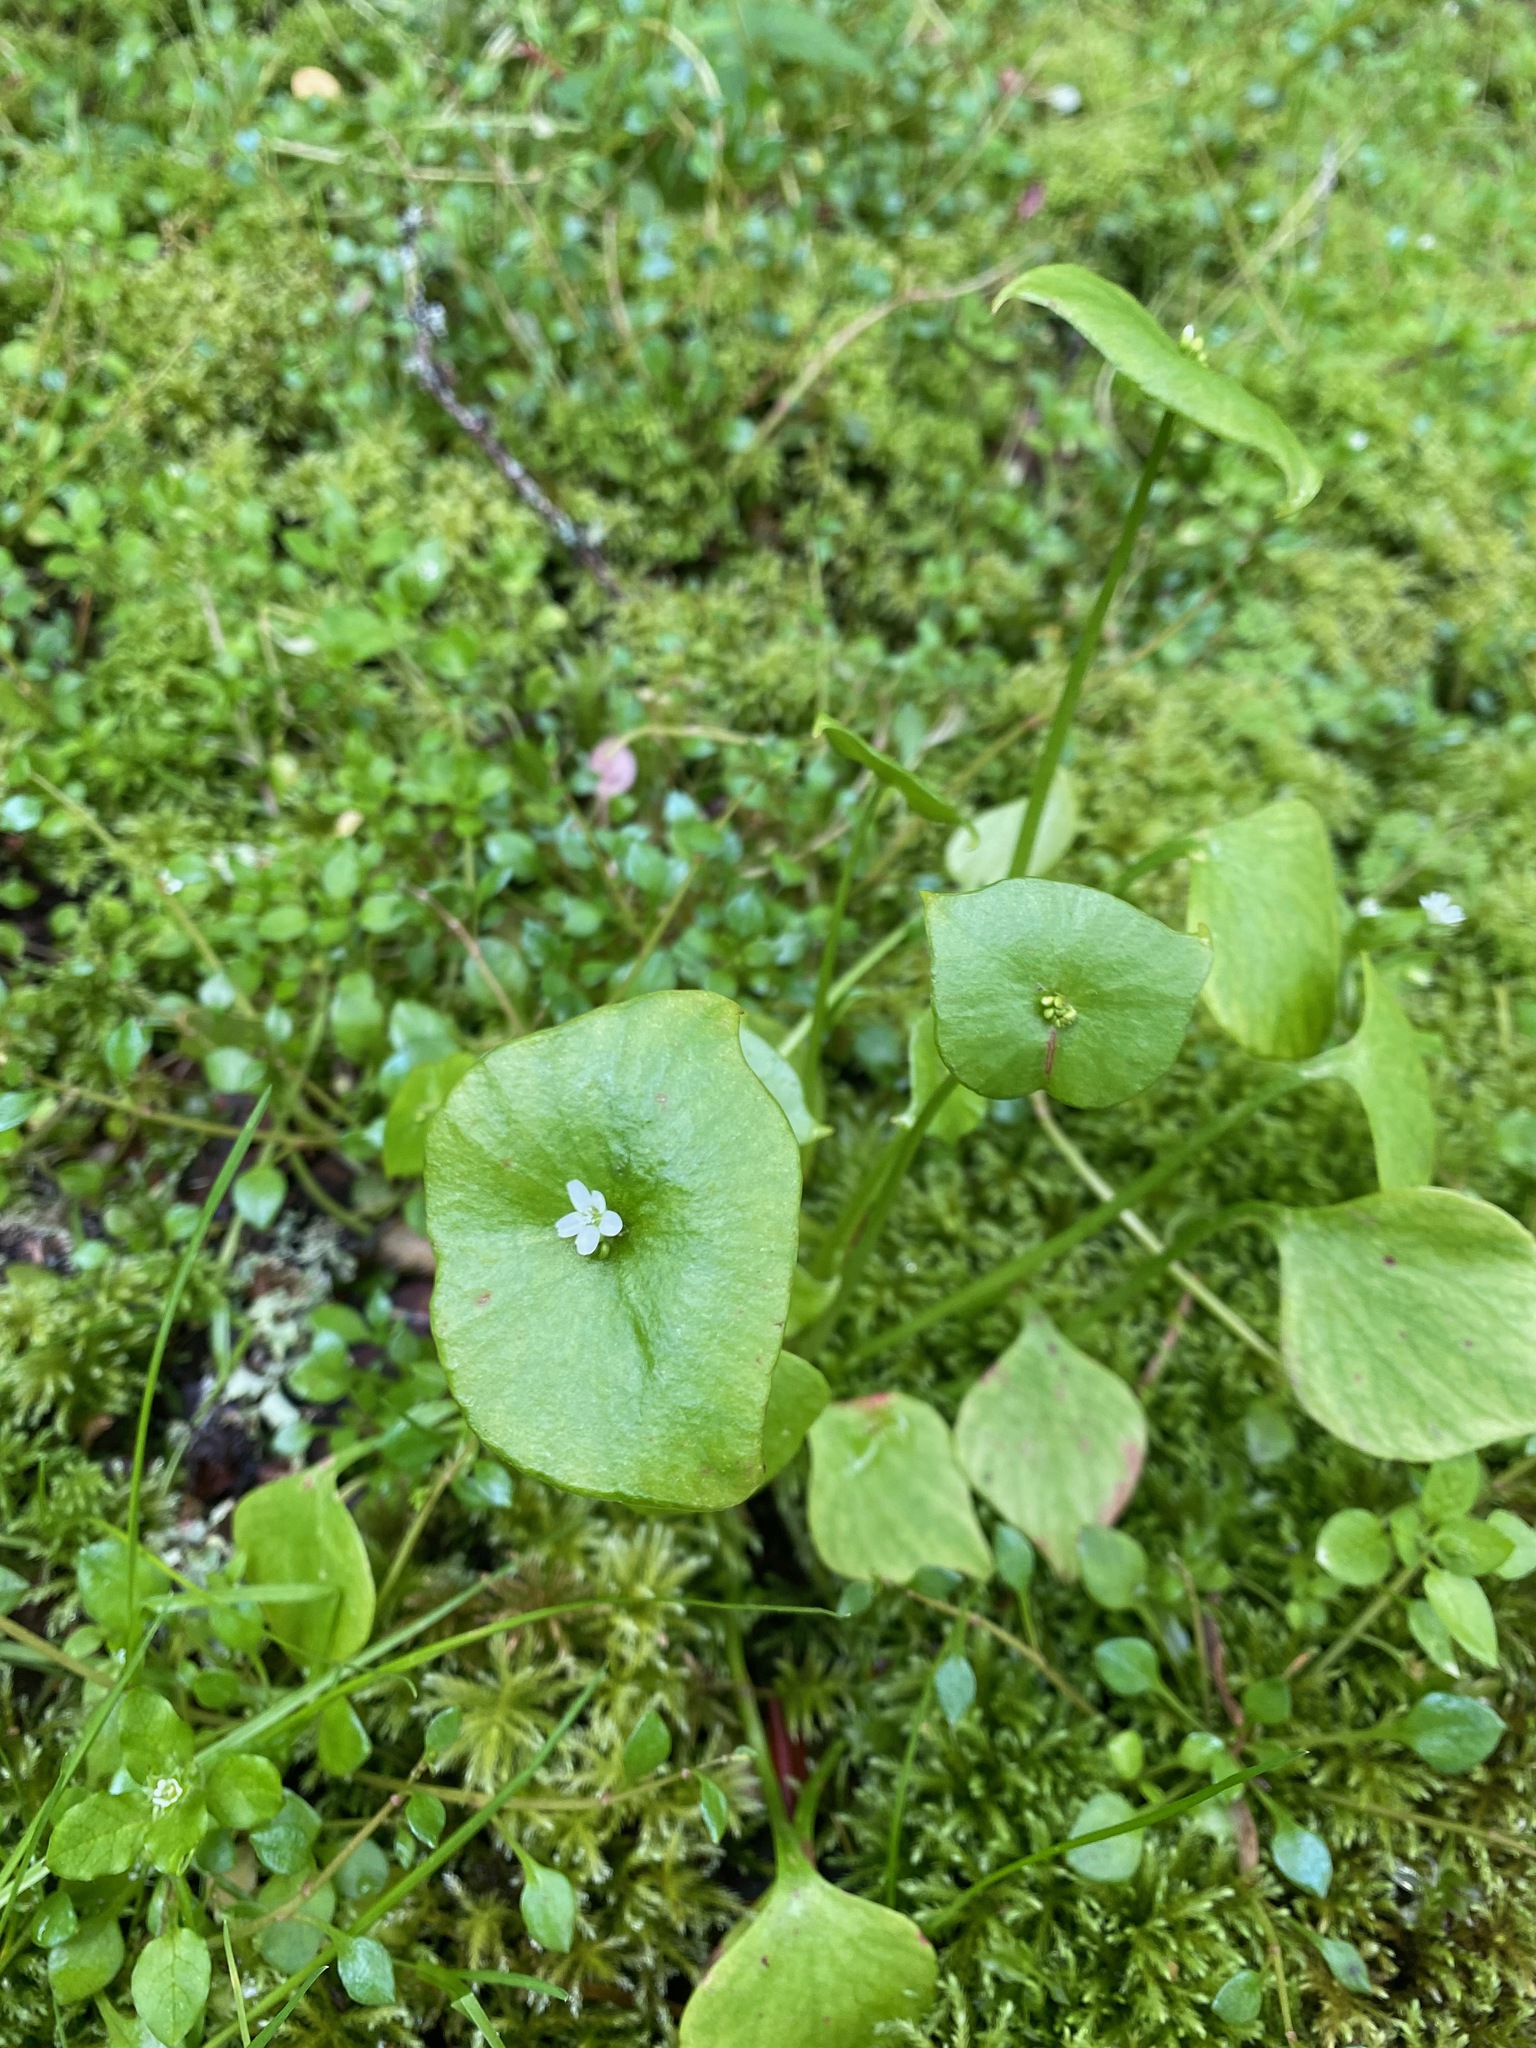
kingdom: Plantae
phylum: Tracheophyta
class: Magnoliopsida
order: Caryophyllales
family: Montiaceae
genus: Claytonia
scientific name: Claytonia perfoliata
